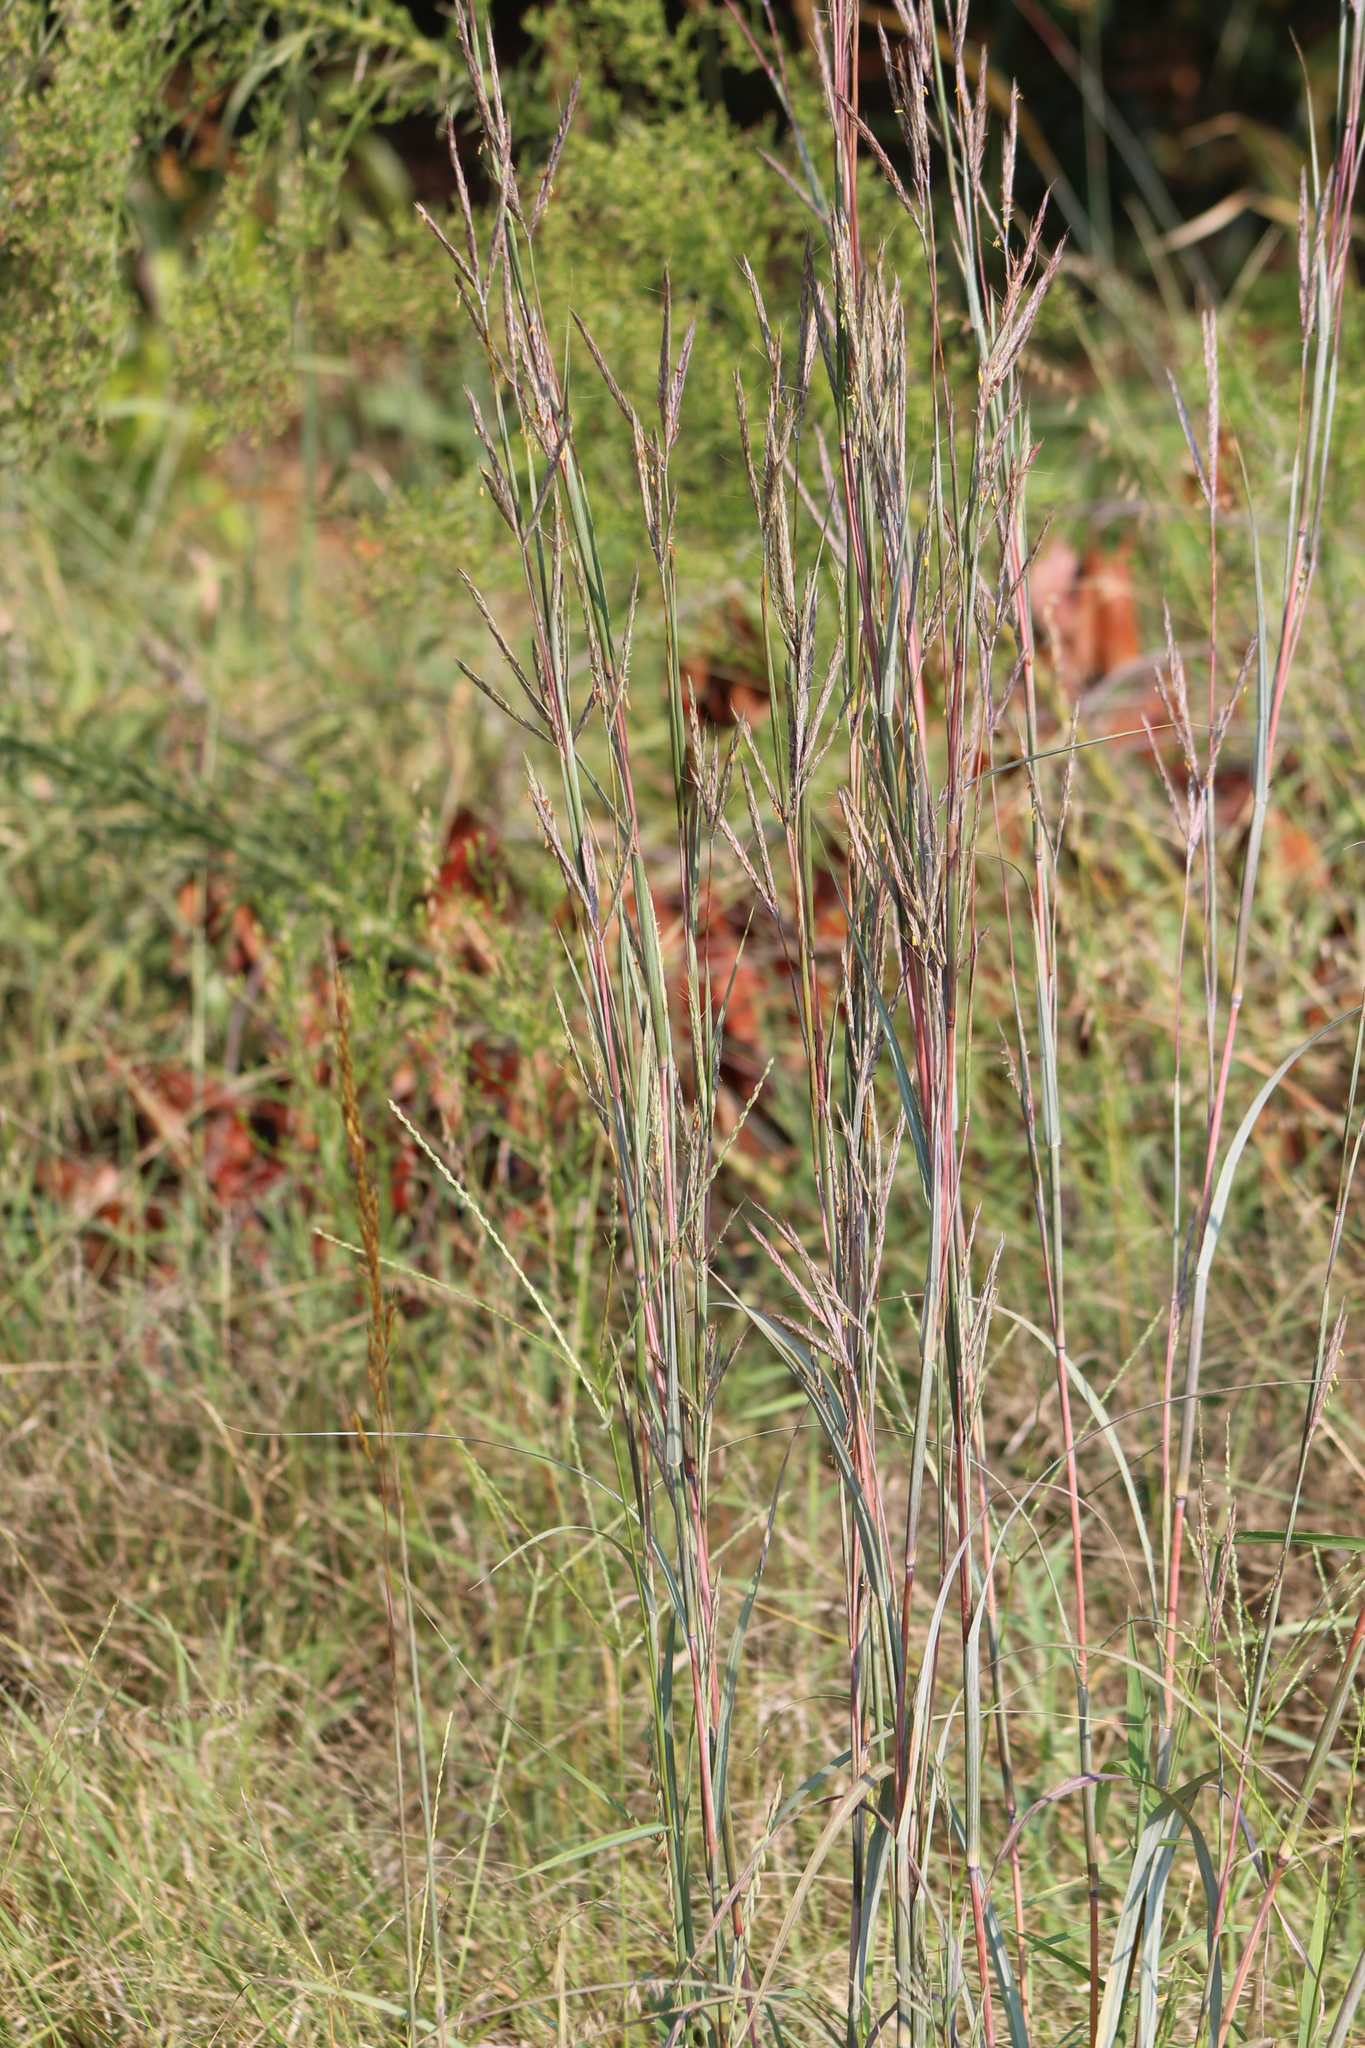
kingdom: Plantae
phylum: Tracheophyta
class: Liliopsida
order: Poales
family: Poaceae
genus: Andropogon
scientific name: Andropogon gerardi
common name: Big bluestem
